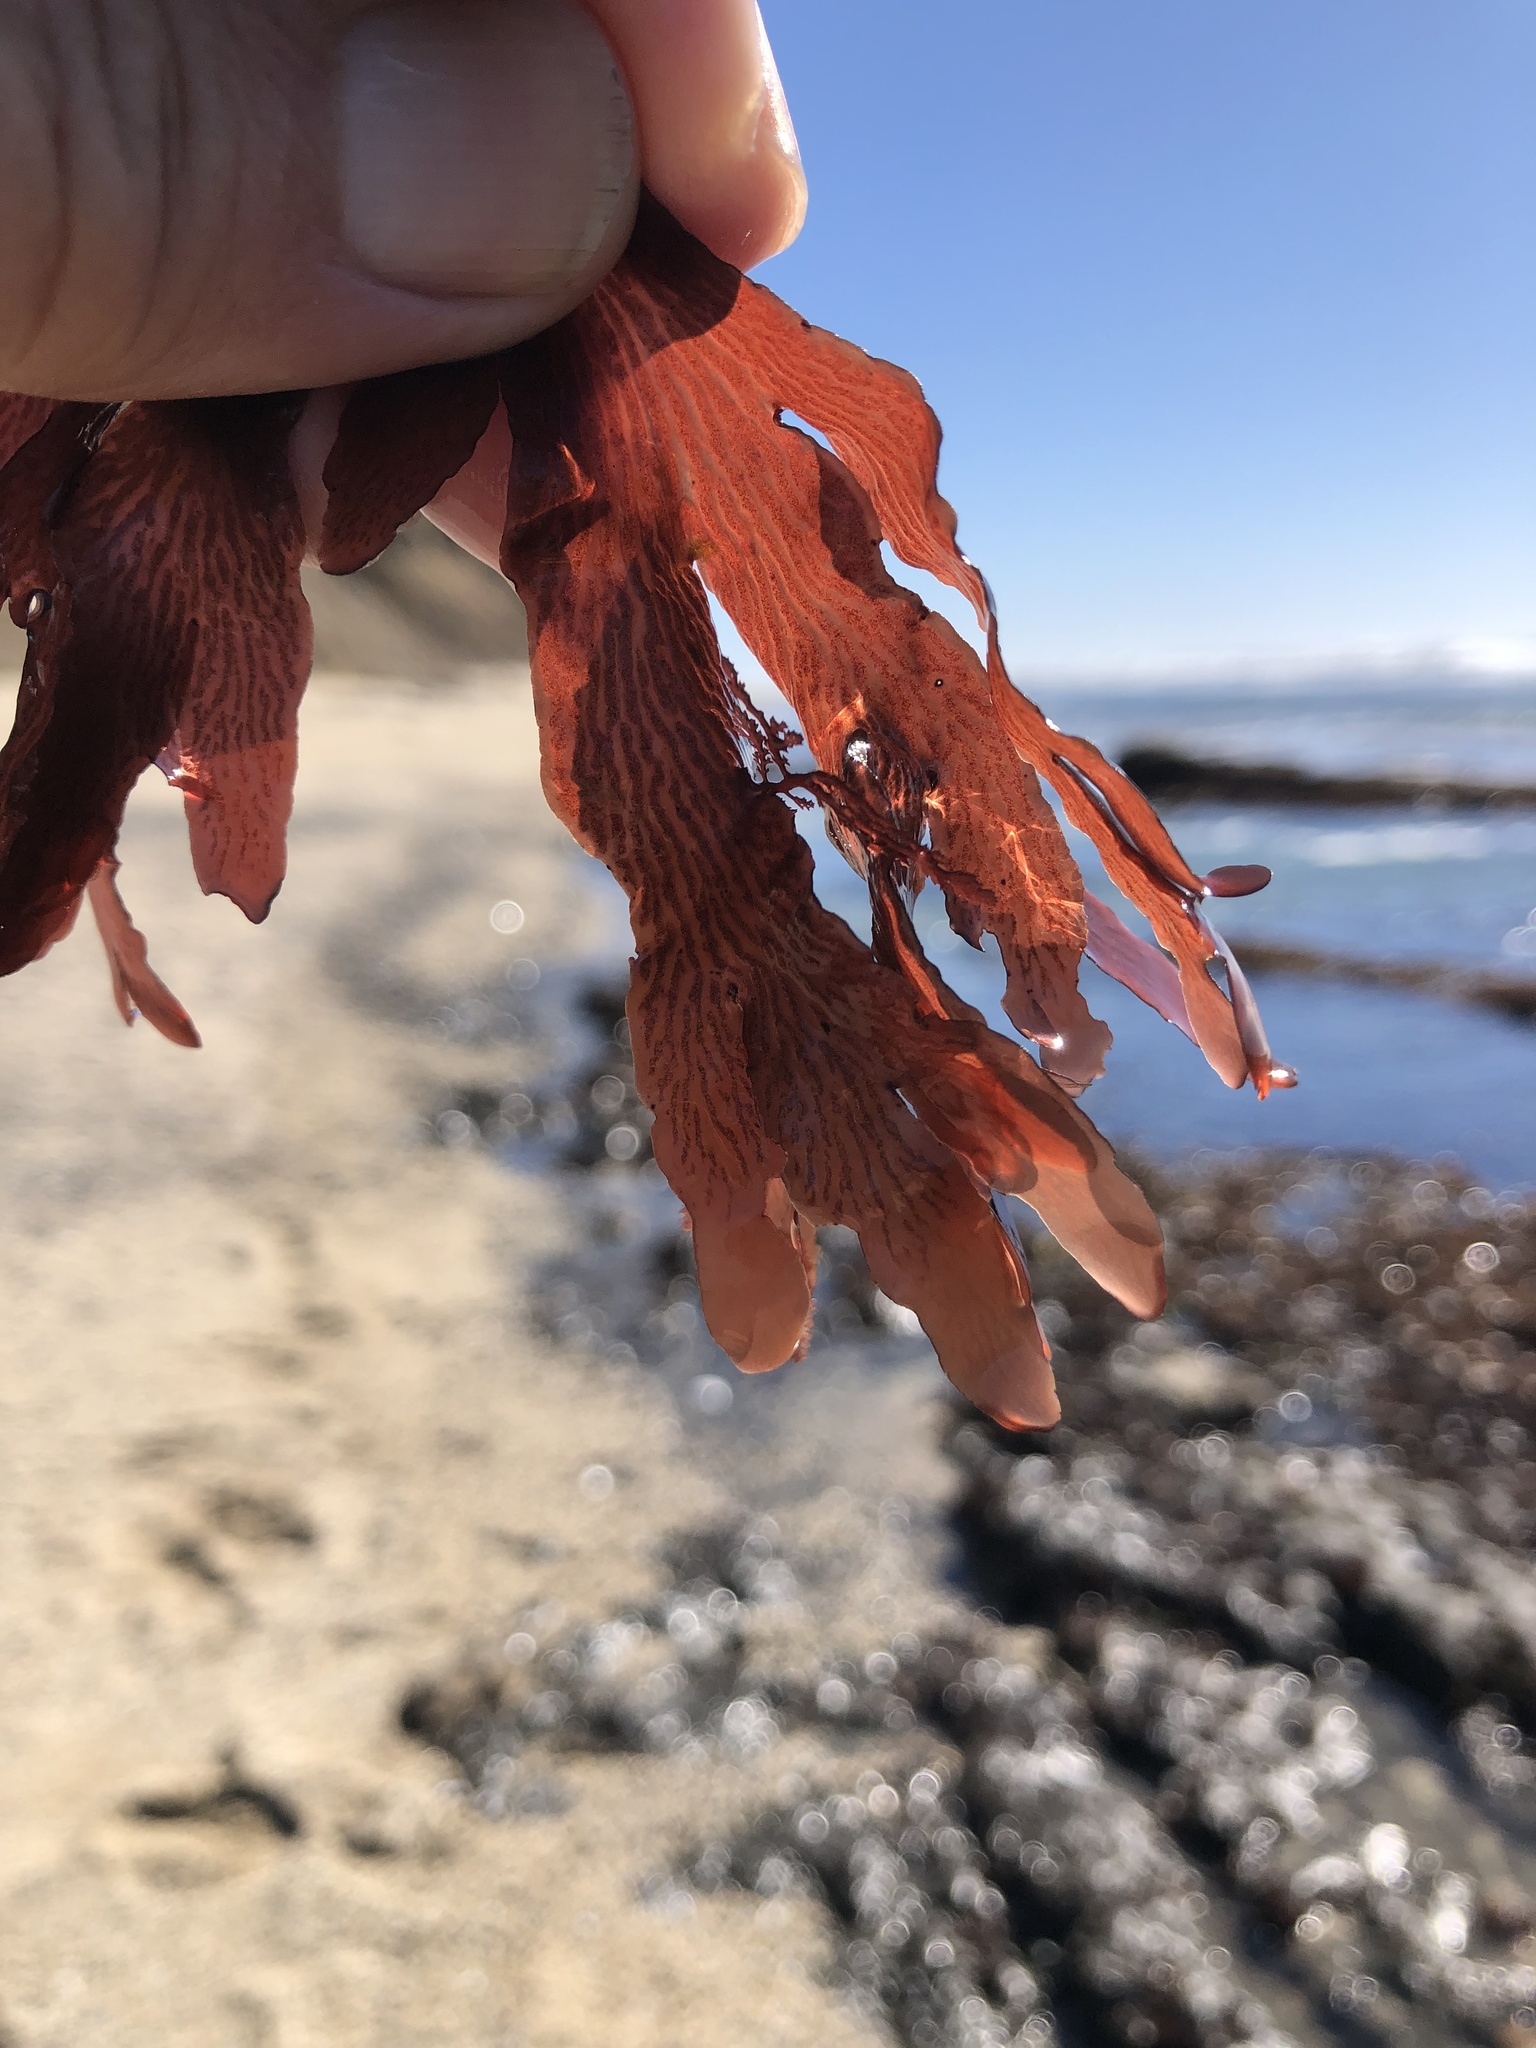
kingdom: Plantae
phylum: Rhodophyta
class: Florideophyceae
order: Ceramiales
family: Delesseriaceae
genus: Hymenena
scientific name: Hymenena flabelligera
